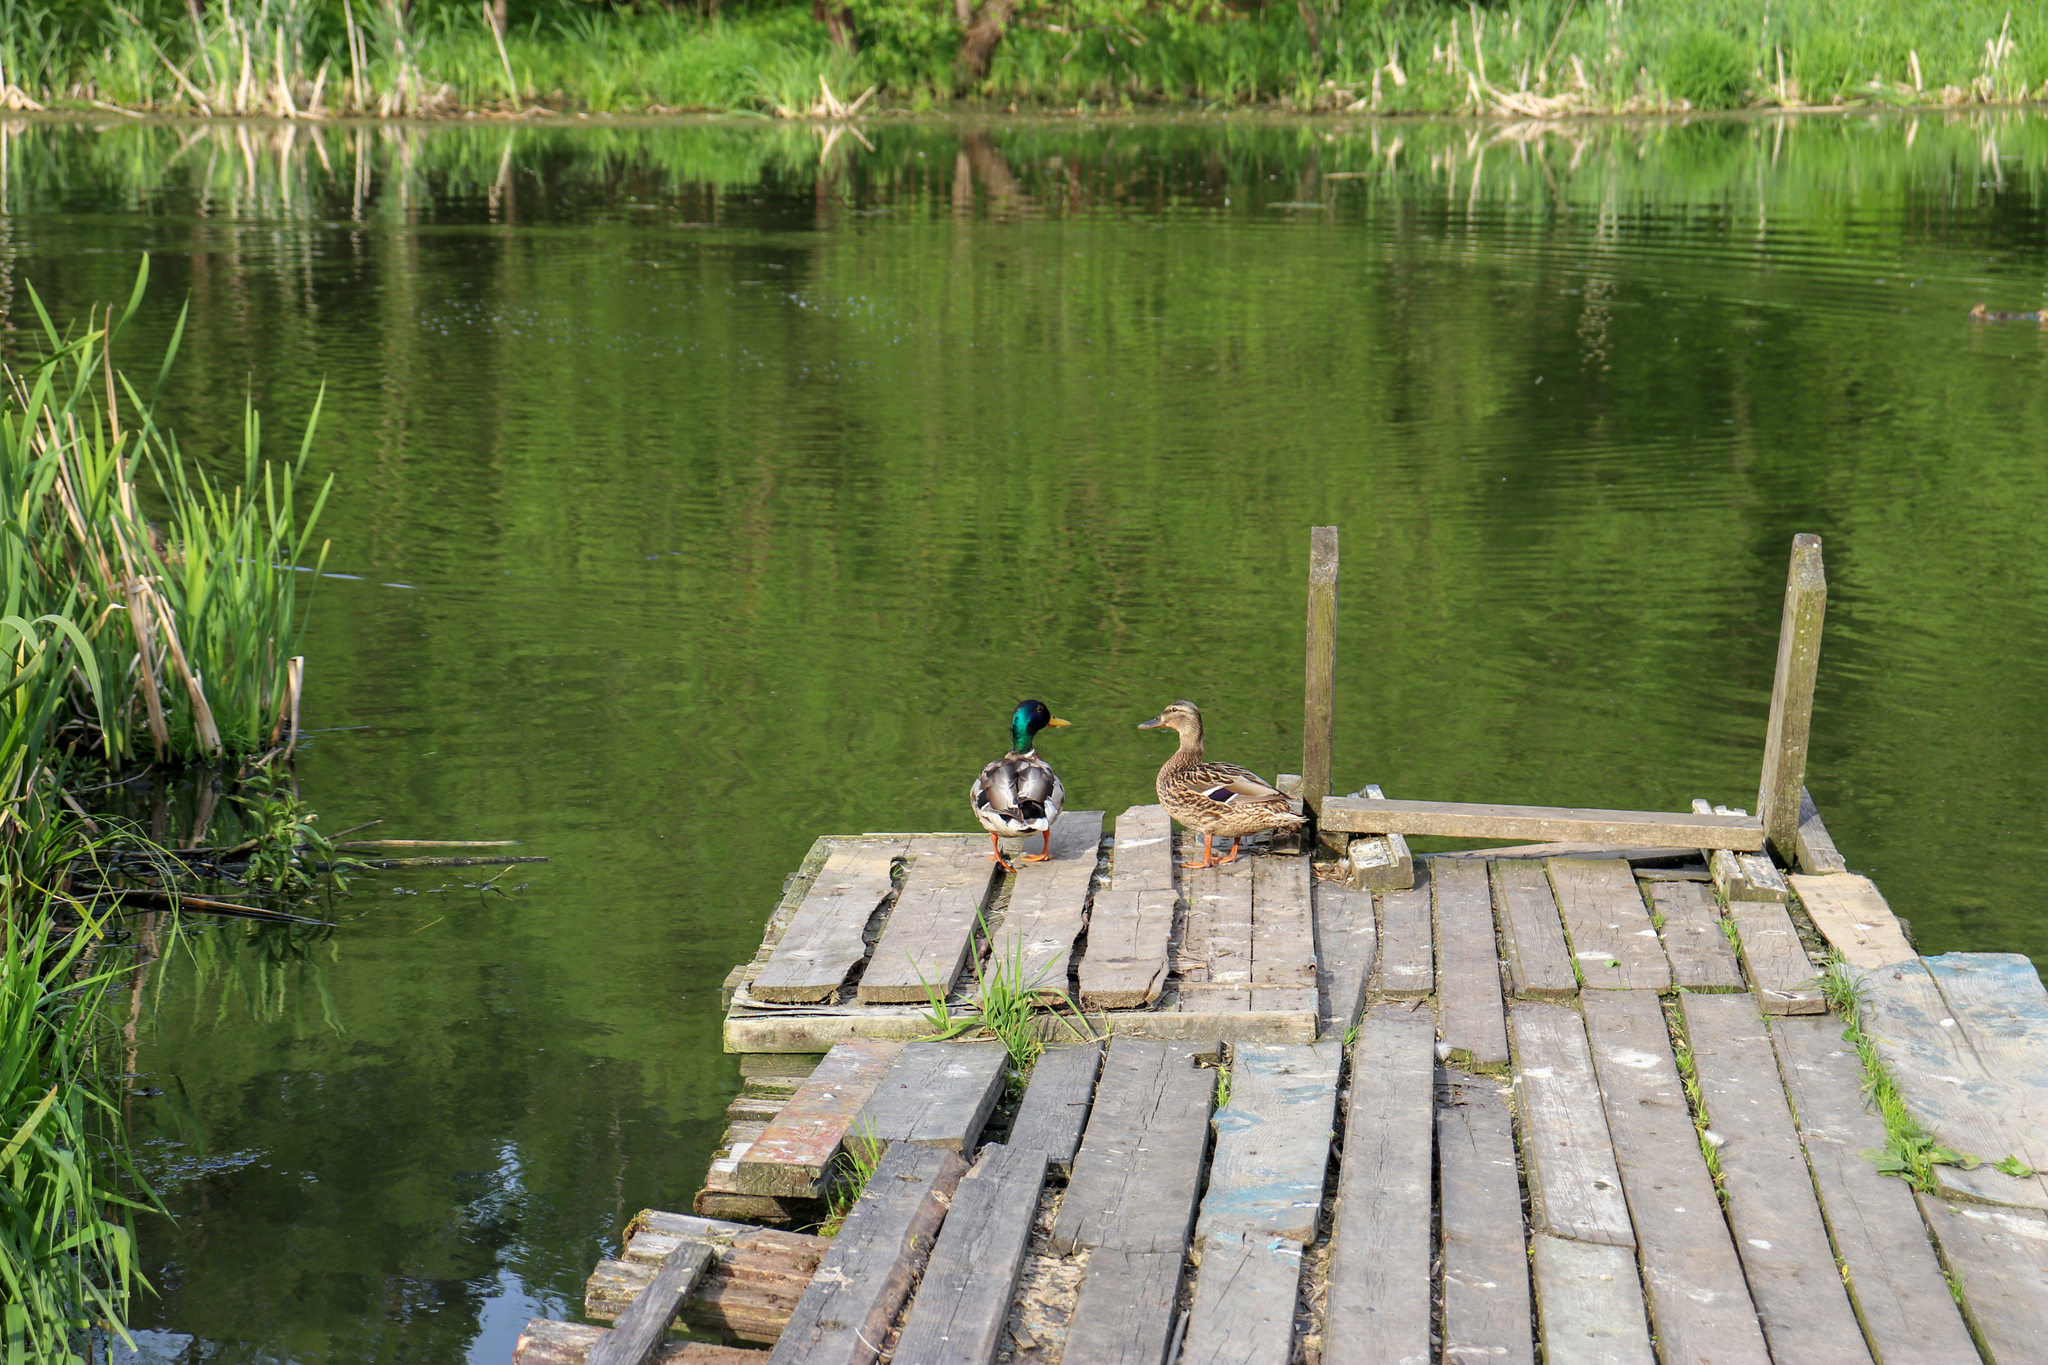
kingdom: Animalia
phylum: Chordata
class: Aves
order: Anseriformes
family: Anatidae
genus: Anas
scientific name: Anas platyrhynchos
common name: Mallard
